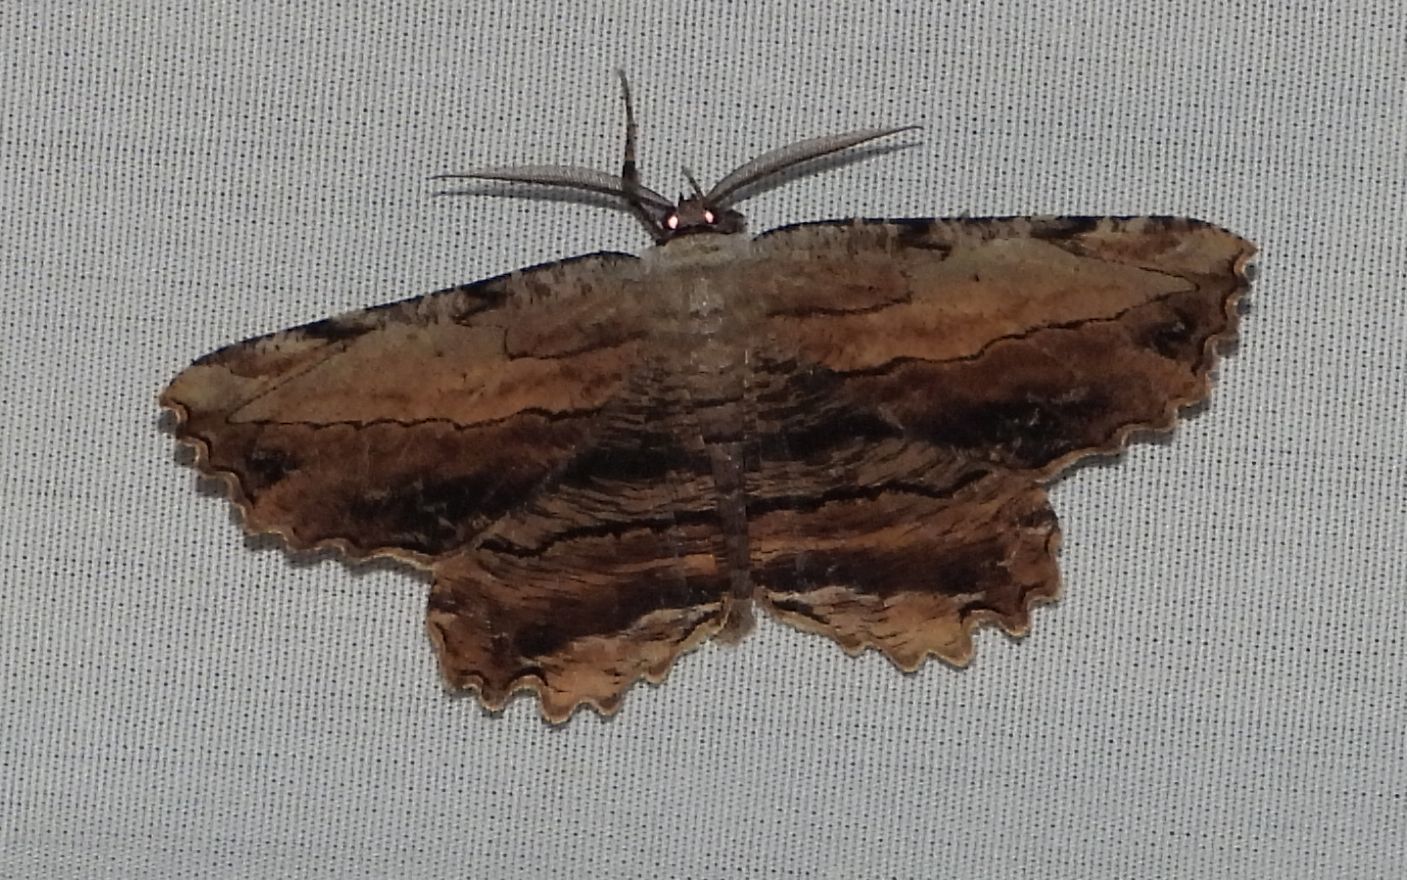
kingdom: Animalia
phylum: Arthropoda
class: Insecta
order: Lepidoptera
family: Geometridae
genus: Lytrosis
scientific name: Lytrosis unitaria
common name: Common lytrosis
